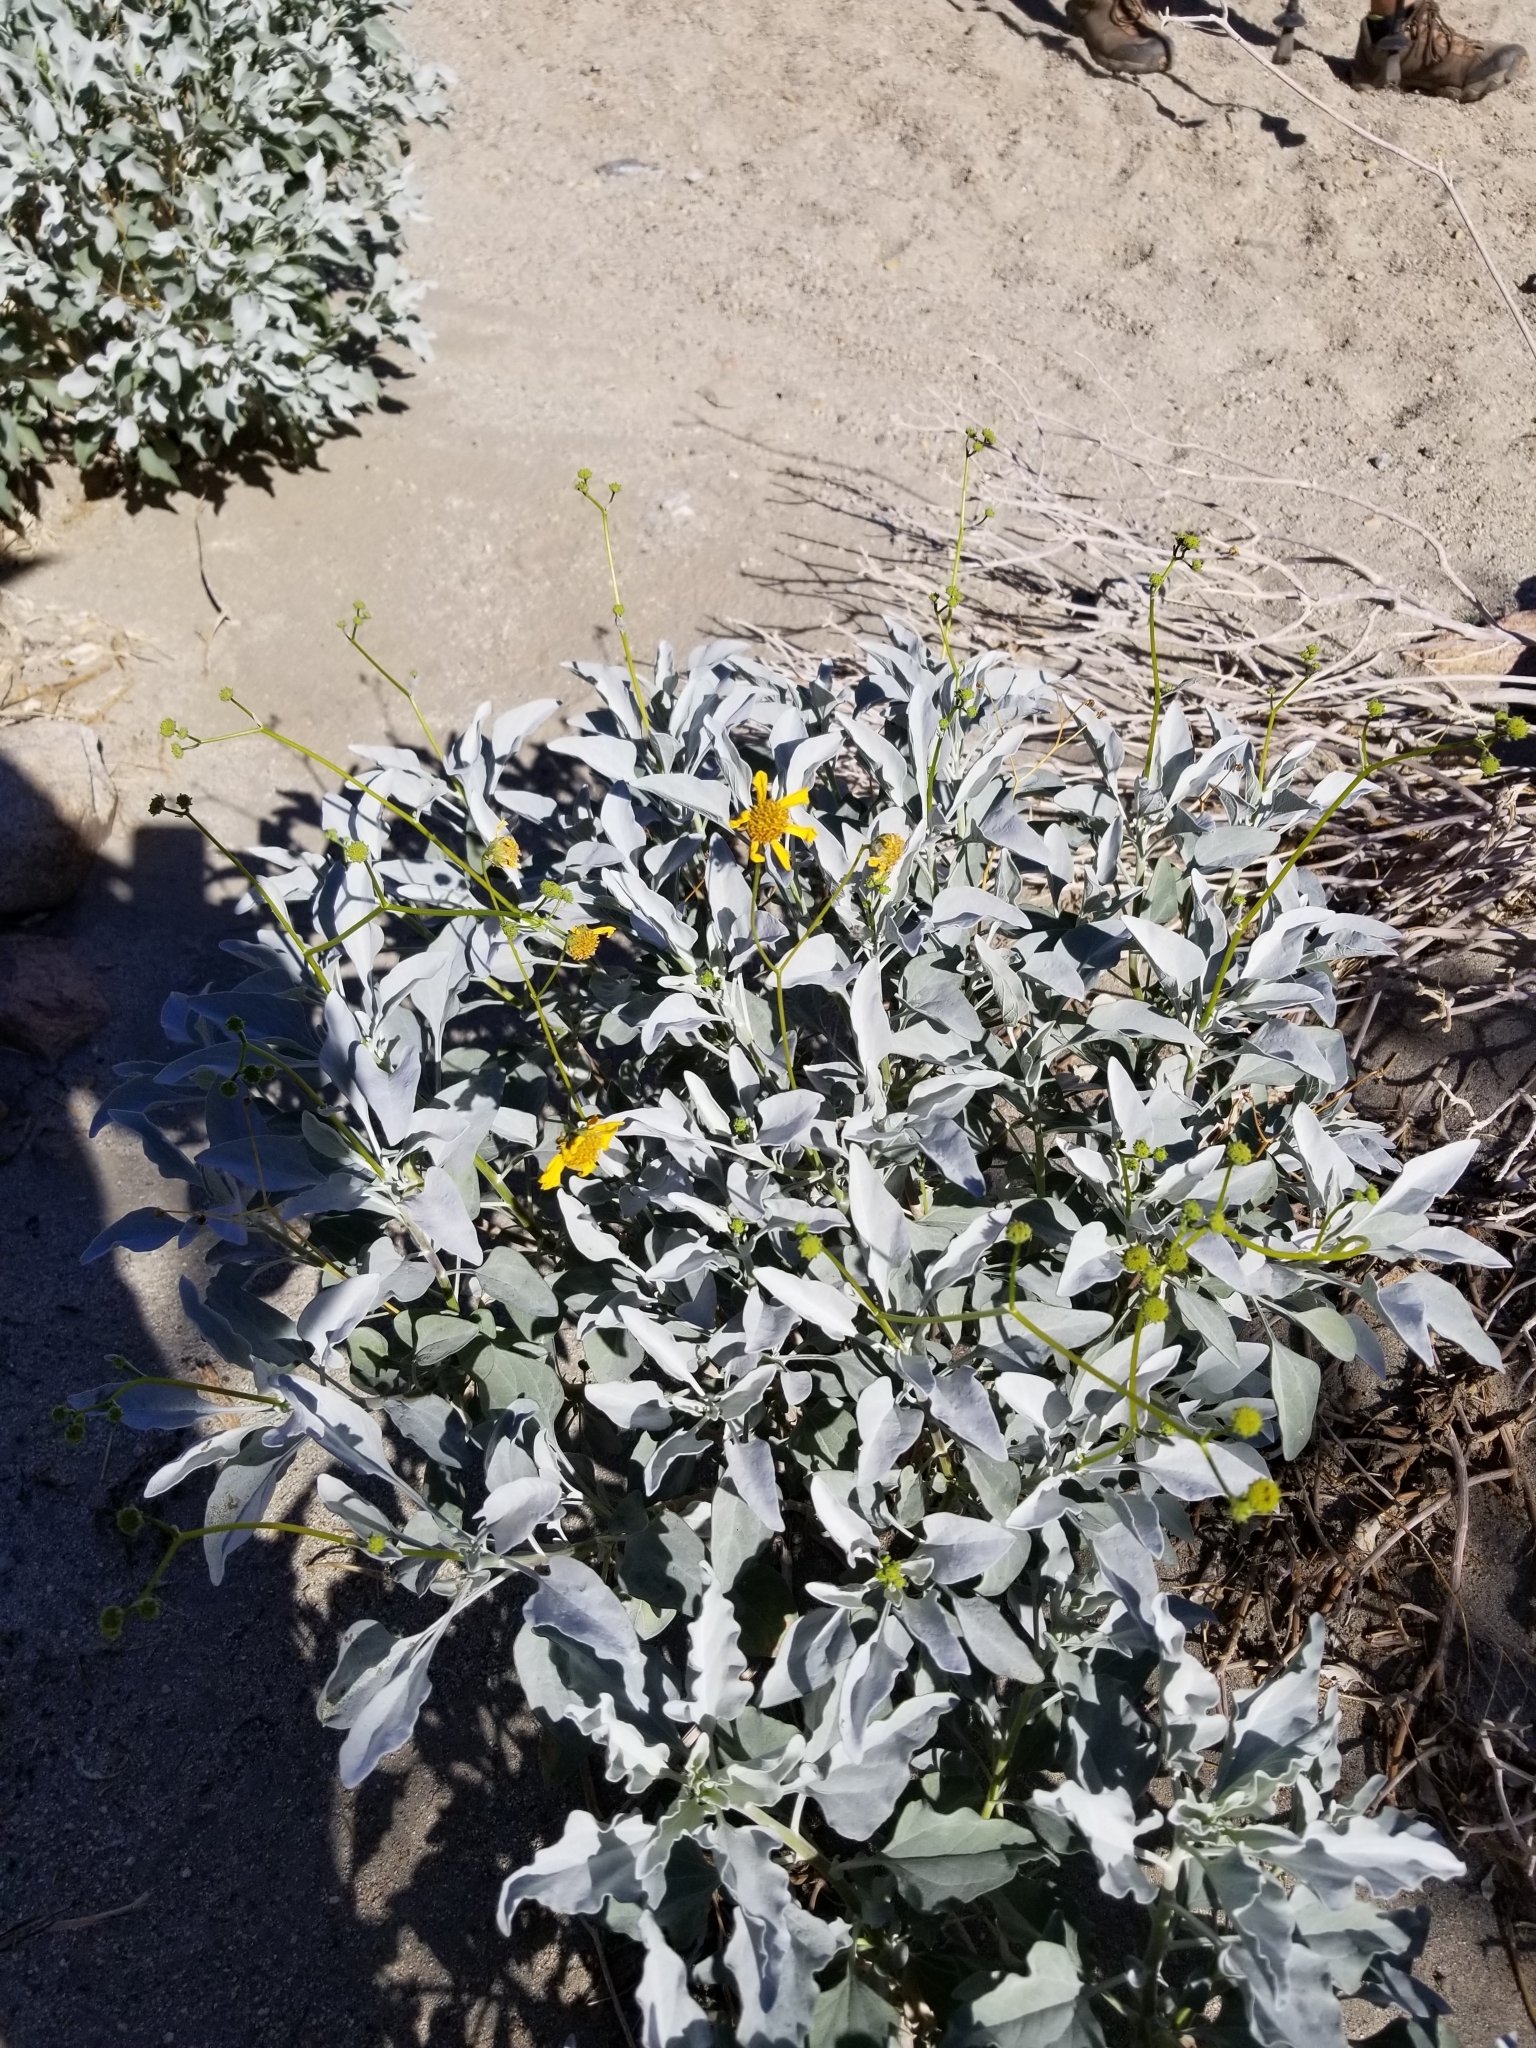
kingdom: Plantae
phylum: Tracheophyta
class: Magnoliopsida
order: Asterales
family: Asteraceae
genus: Encelia
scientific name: Encelia farinosa
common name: Brittlebush
